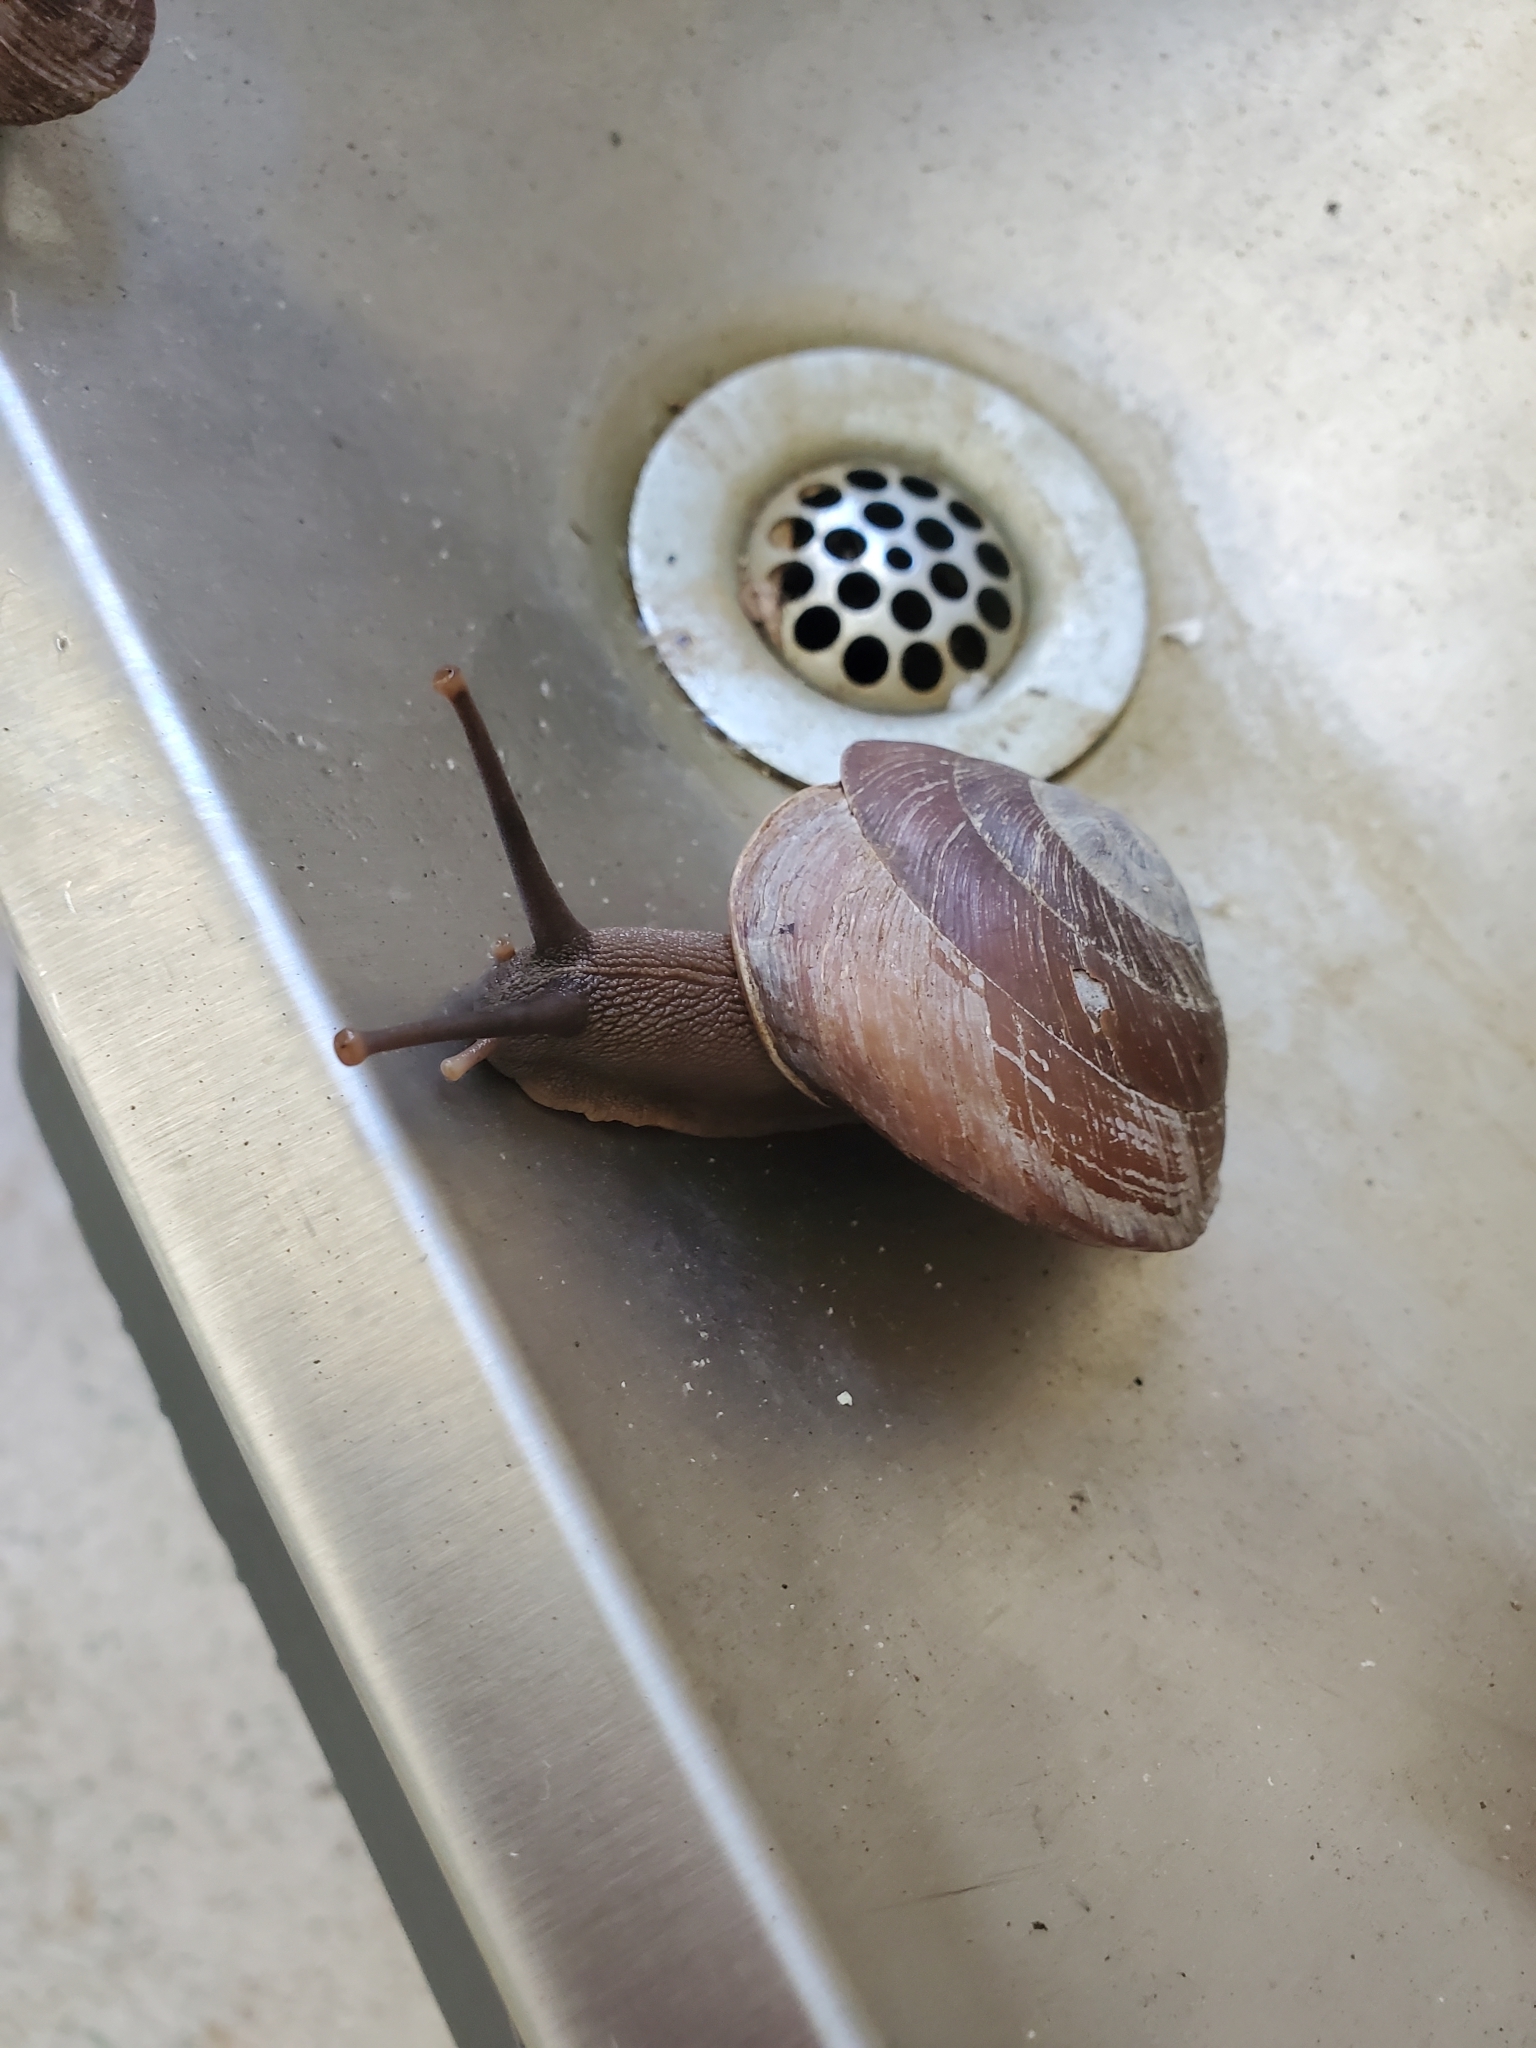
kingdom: Animalia
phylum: Mollusca
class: Gastropoda
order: Stylommatophora
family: Solaropsidae
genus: Caracolus
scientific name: Caracolus carocolla
